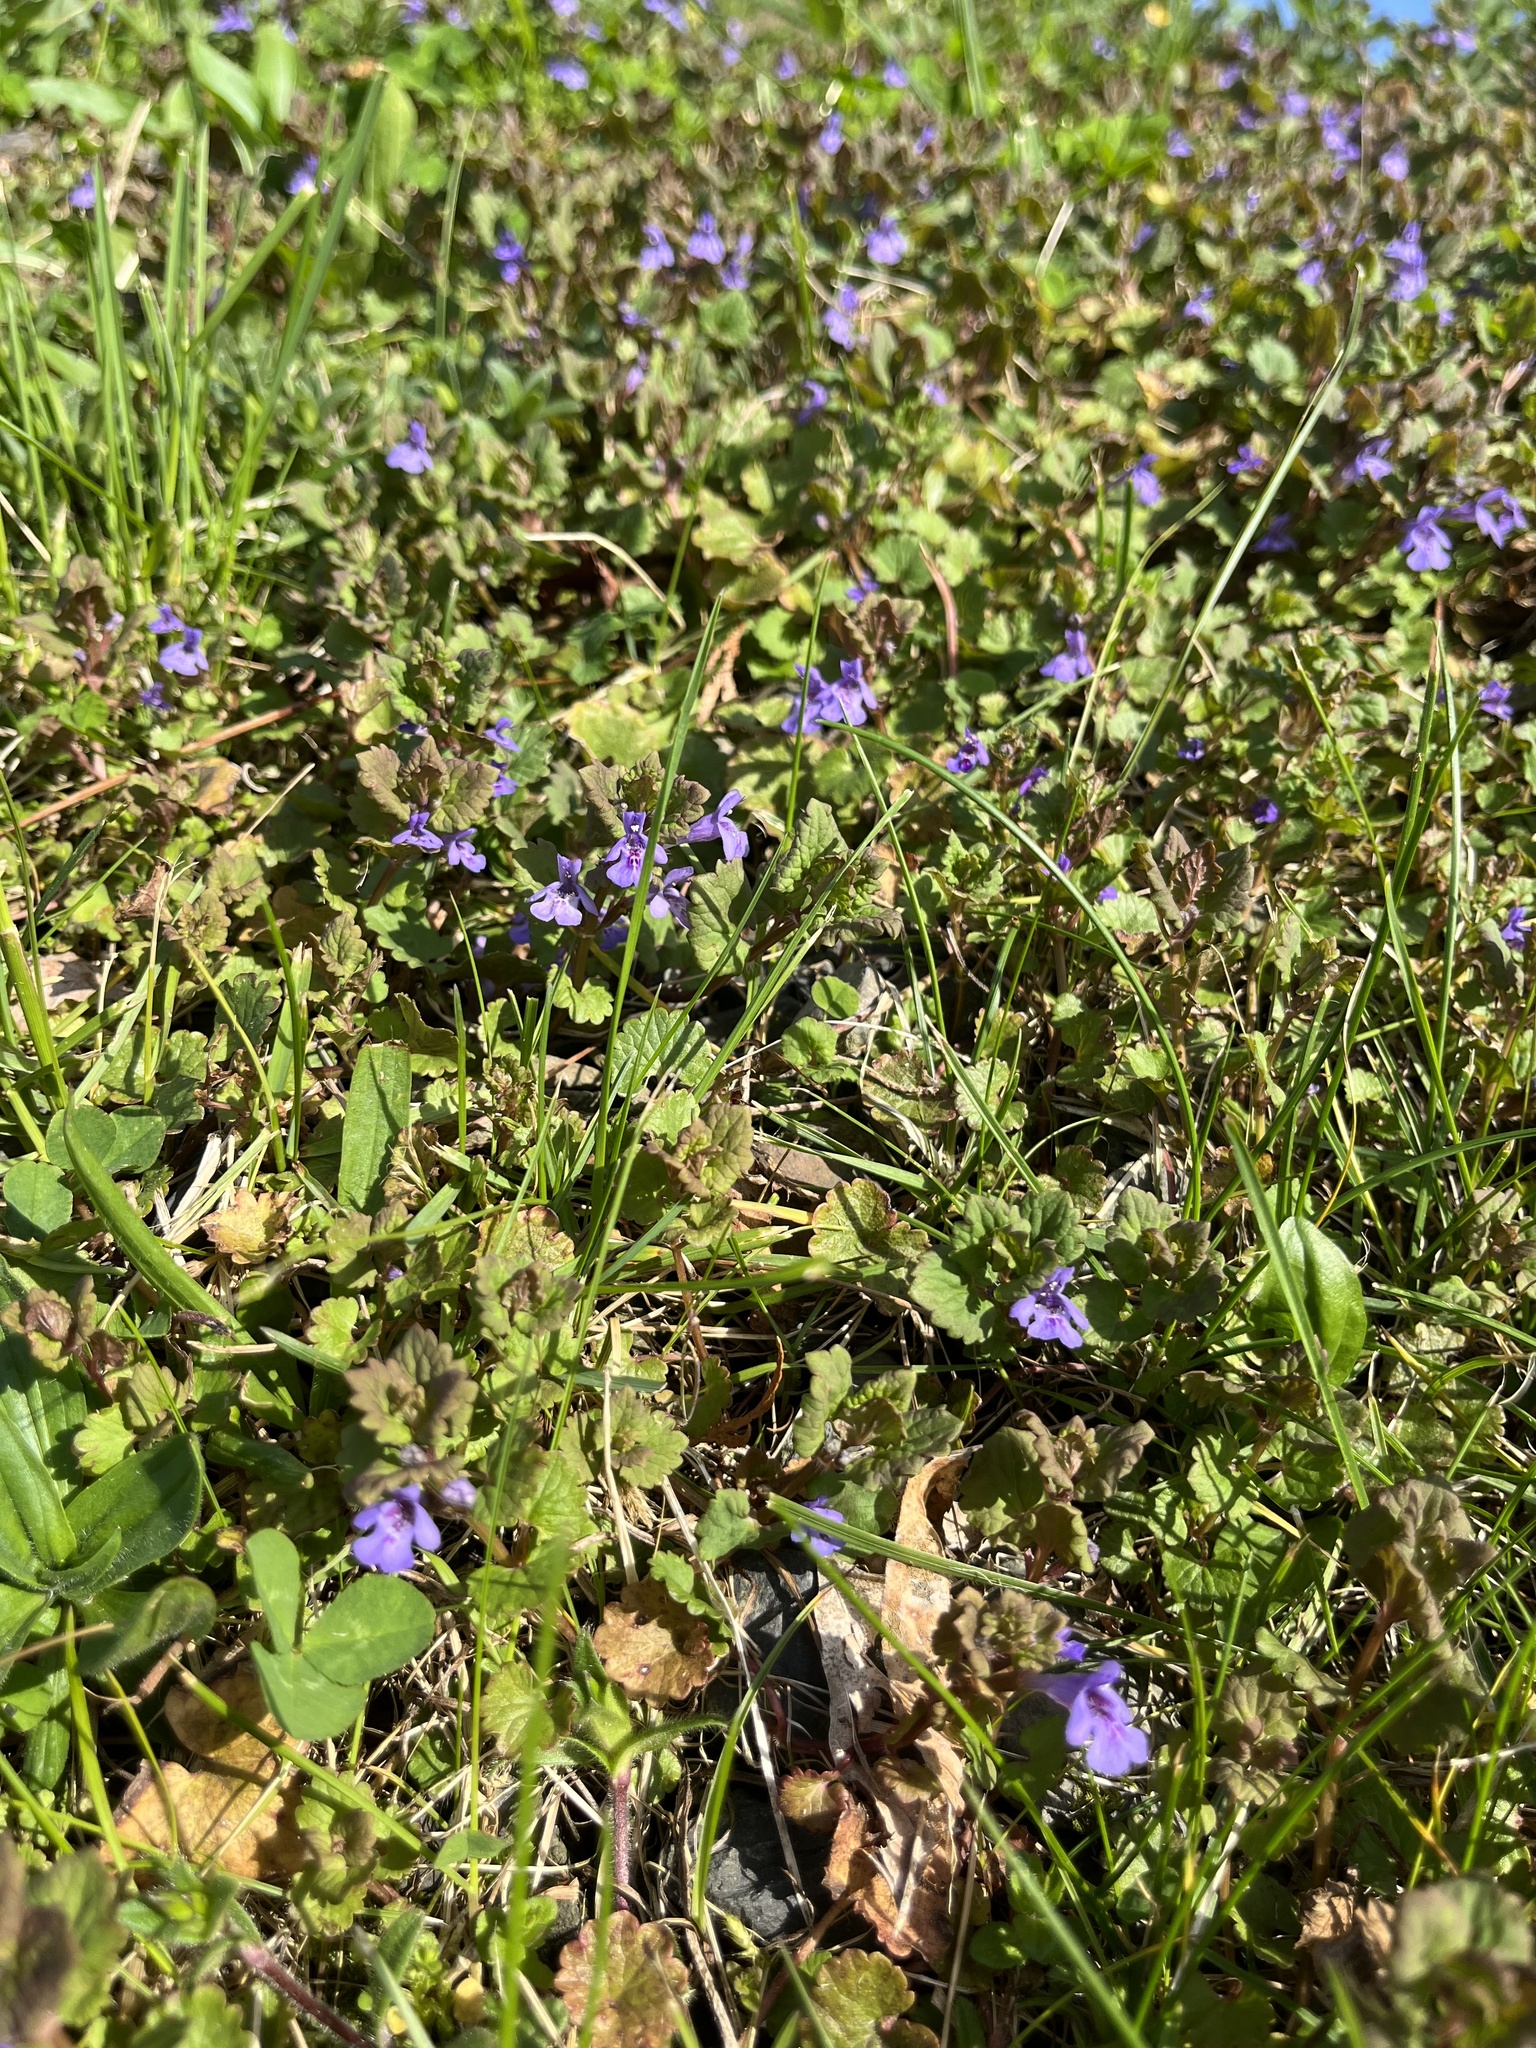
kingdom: Plantae
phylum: Tracheophyta
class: Magnoliopsida
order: Lamiales
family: Lamiaceae
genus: Glechoma
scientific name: Glechoma hederacea
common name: Ground ivy
